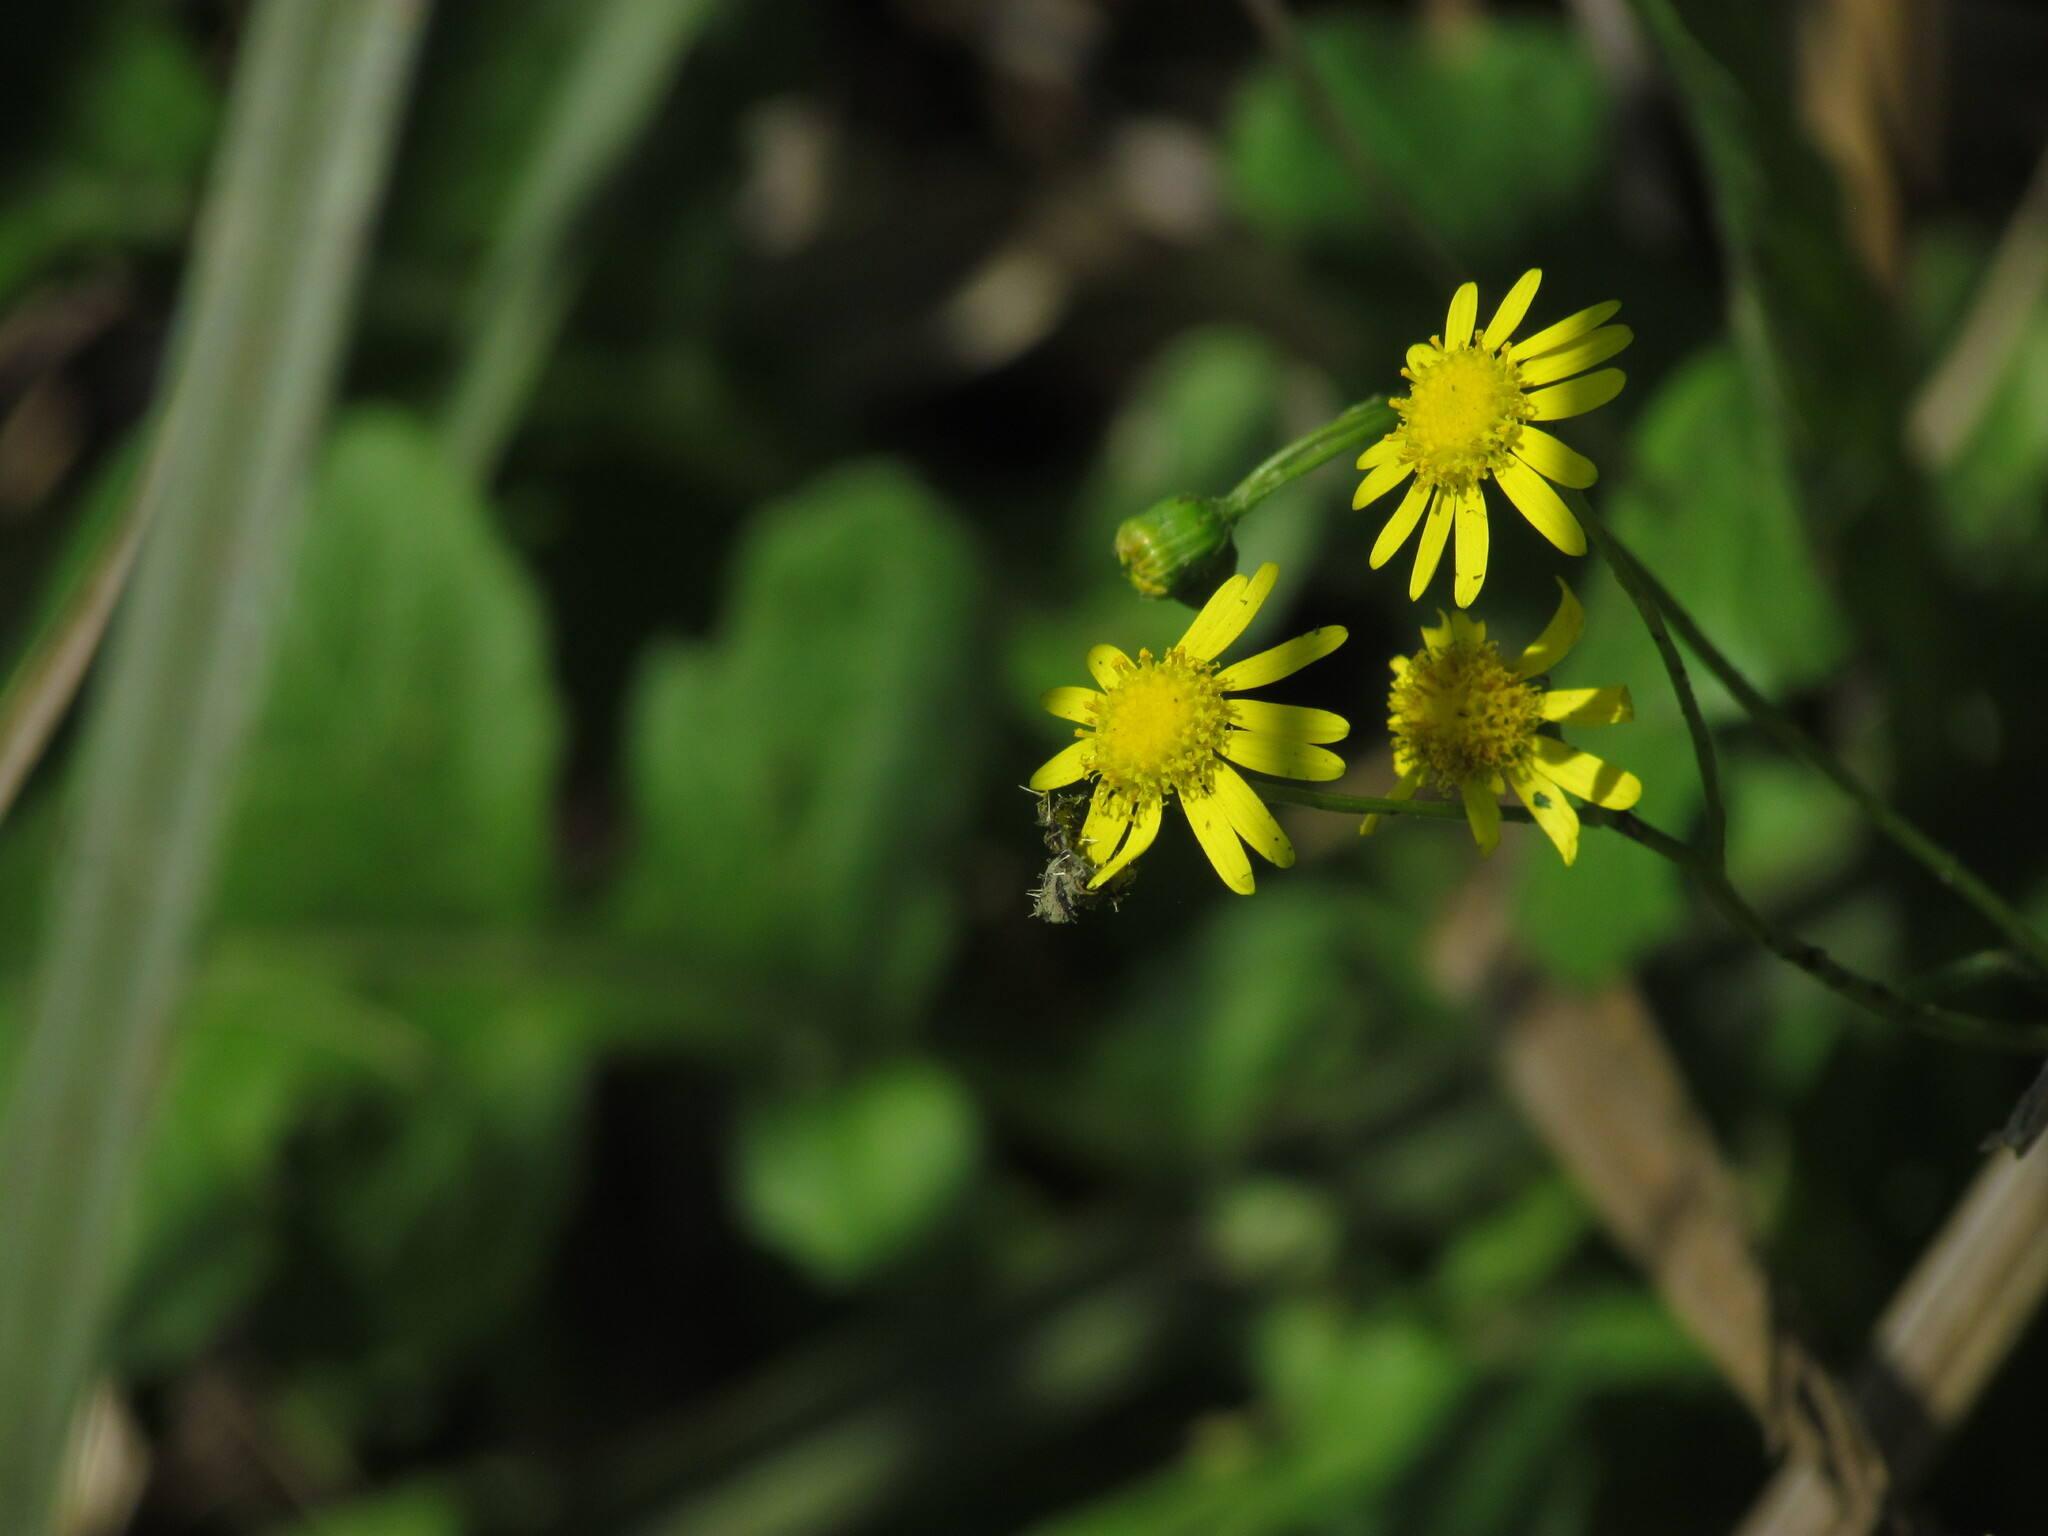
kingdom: Plantae
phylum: Tracheophyta
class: Magnoliopsida
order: Asterales
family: Asteraceae
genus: Senecio
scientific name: Senecio madagascariensis
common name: Madagascar ragwort
